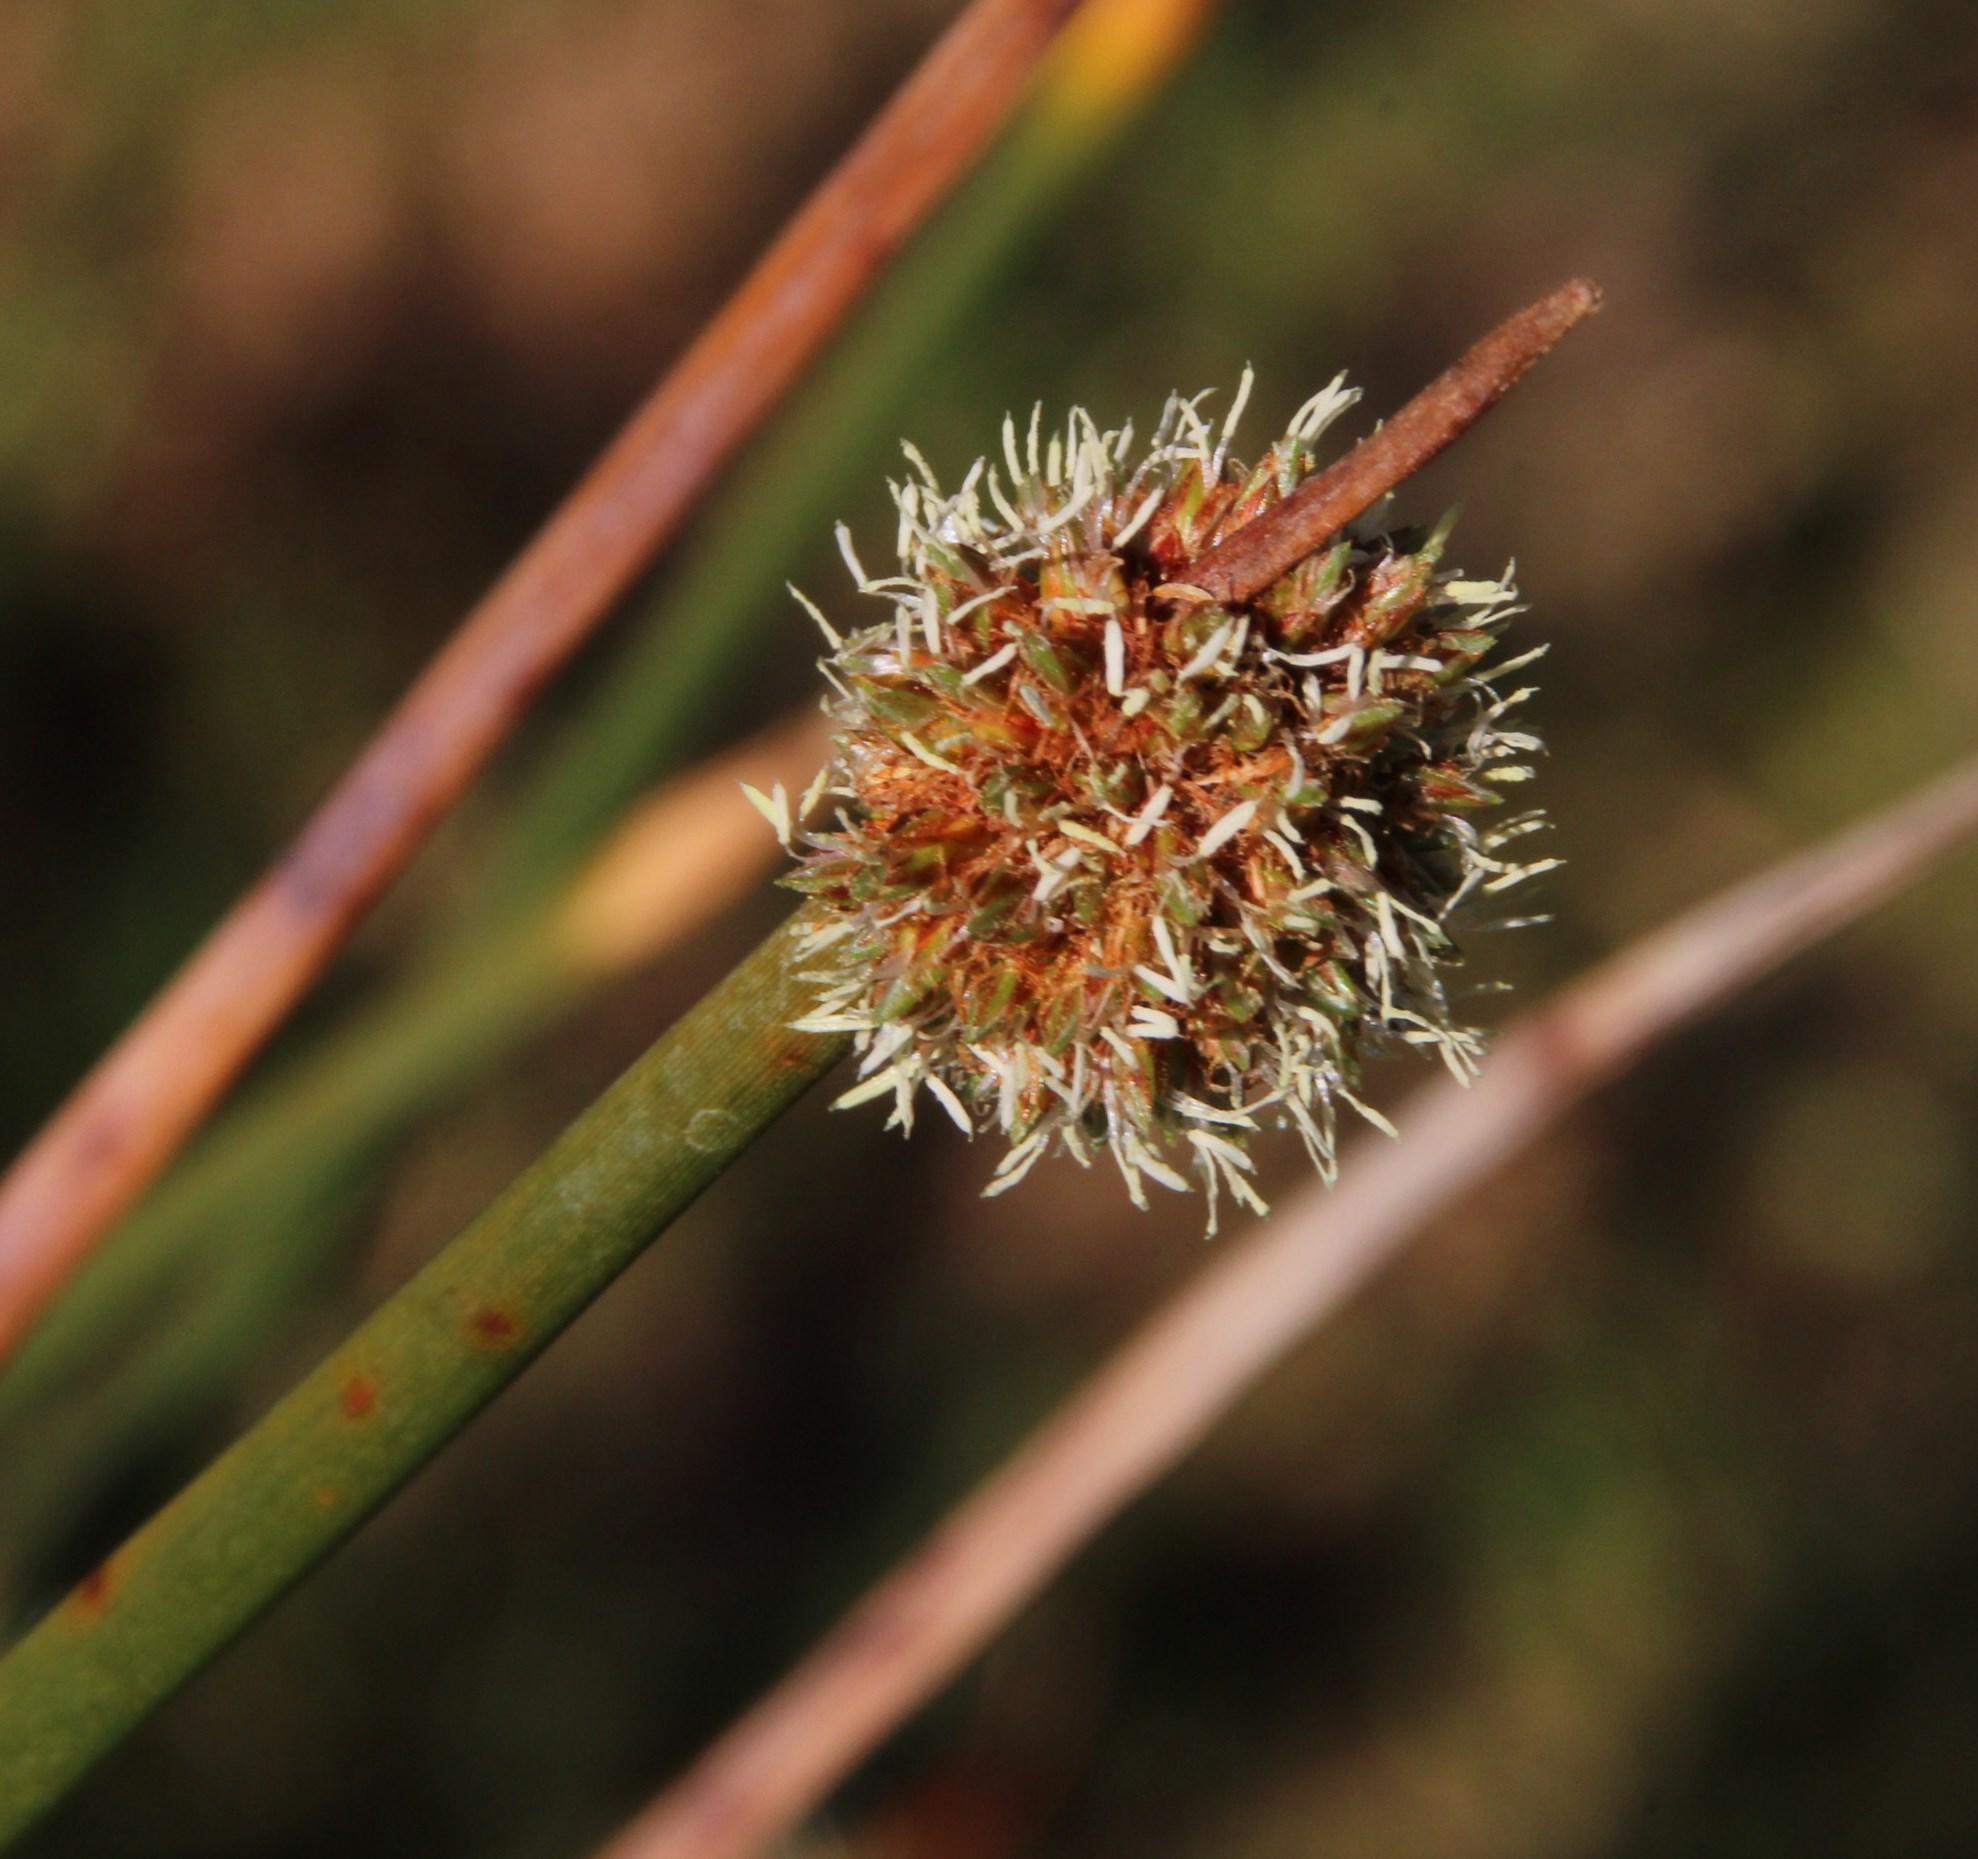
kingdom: Plantae
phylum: Tracheophyta
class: Liliopsida
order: Poales
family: Cyperaceae
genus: Ficinia
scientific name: Ficinia nodosa
